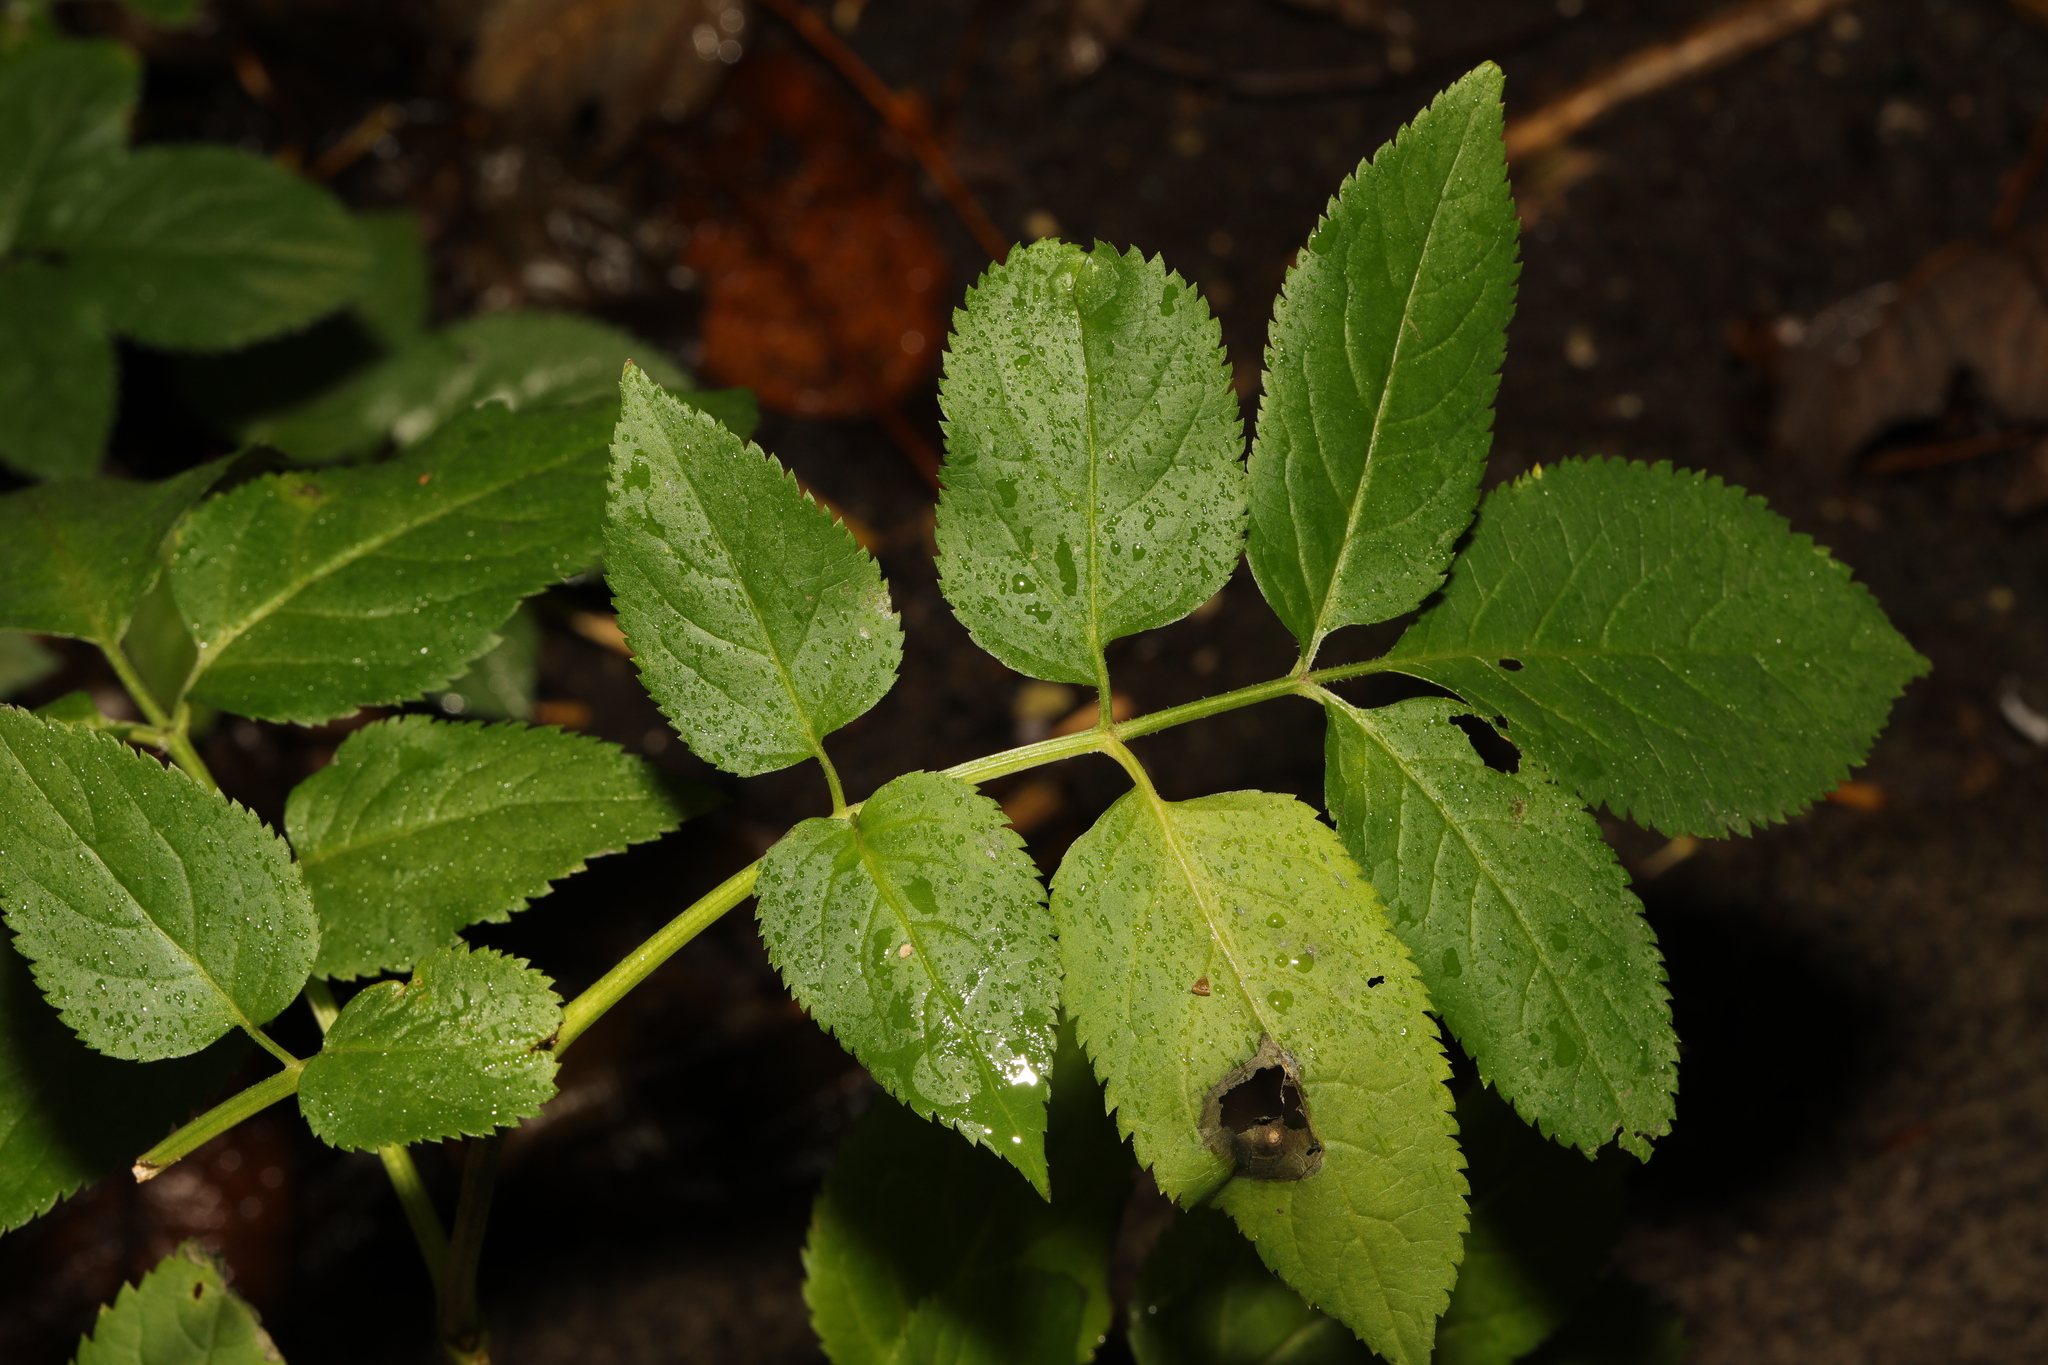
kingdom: Plantae
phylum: Tracheophyta
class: Magnoliopsida
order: Dipsacales
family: Viburnaceae
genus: Sambucus
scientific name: Sambucus nigra
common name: Elder
